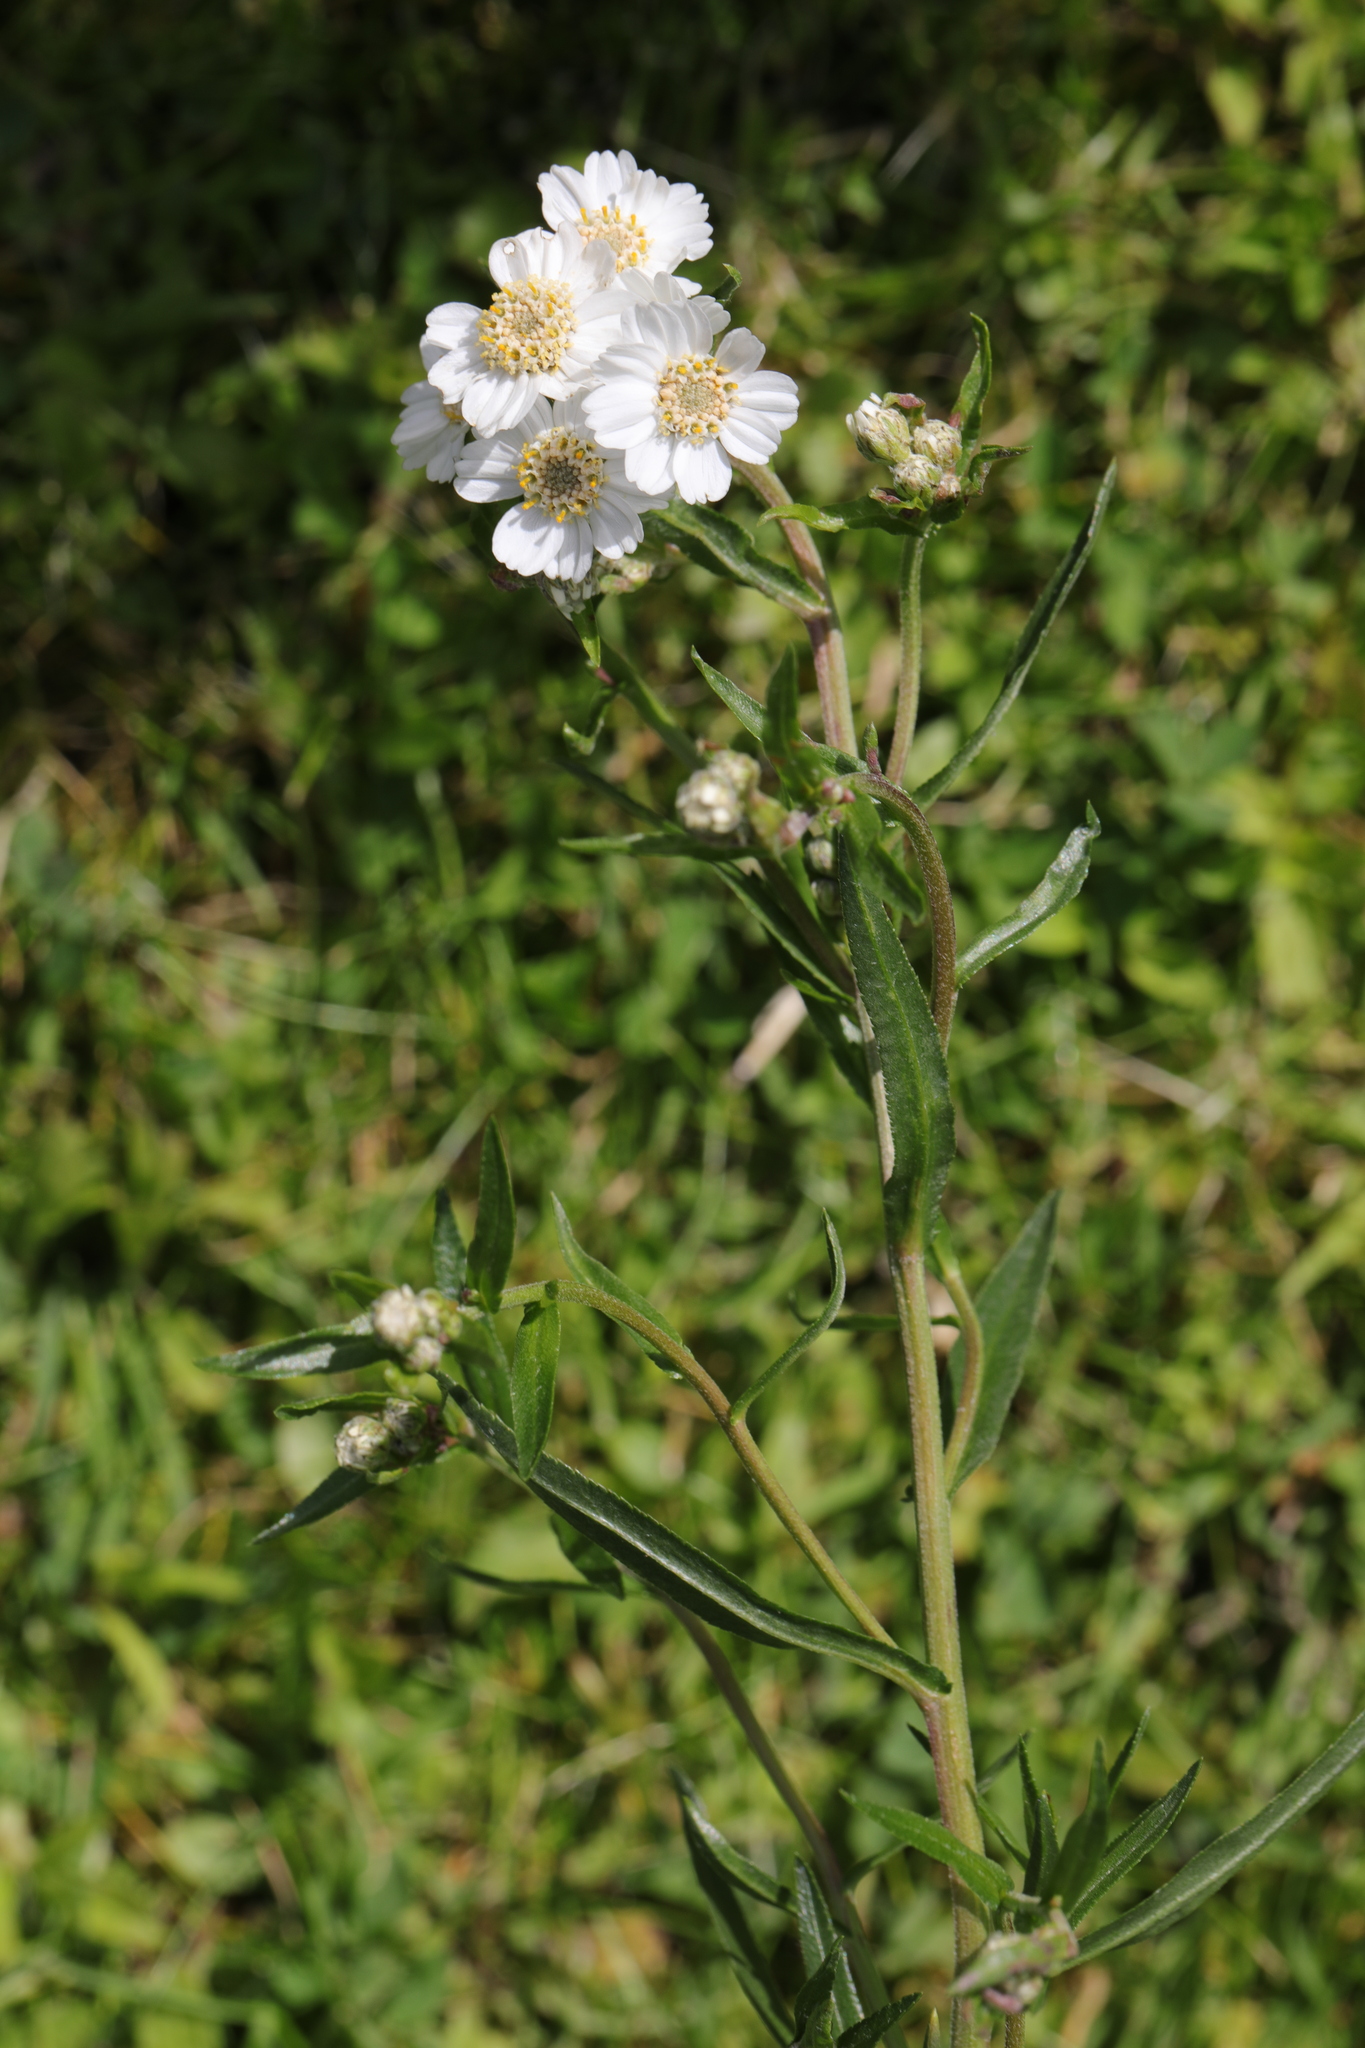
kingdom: Plantae
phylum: Tracheophyta
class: Magnoliopsida
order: Asterales
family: Asteraceae
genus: Achillea
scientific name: Achillea ptarmica
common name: Sneezeweed
